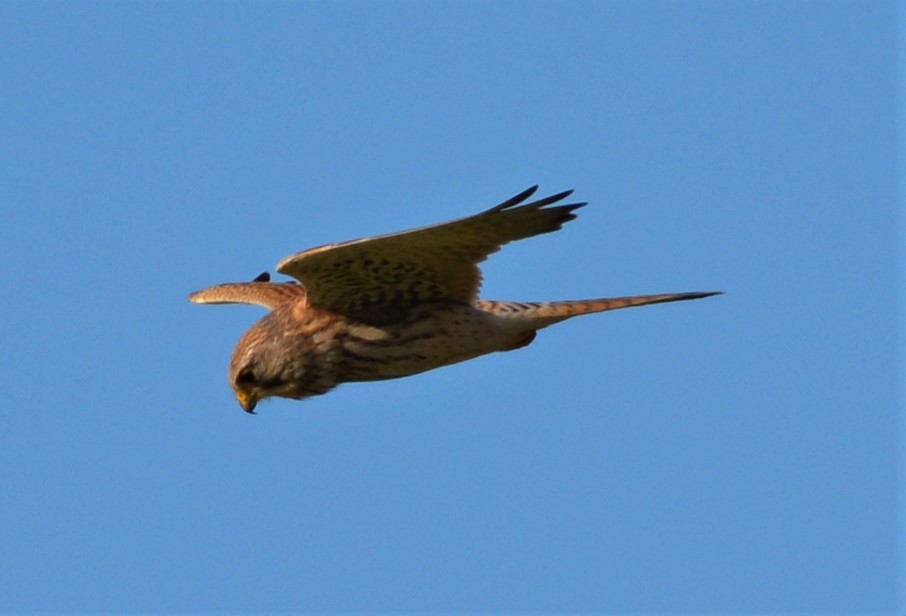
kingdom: Animalia
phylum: Chordata
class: Aves
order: Falconiformes
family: Falconidae
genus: Falco
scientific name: Falco tinnunculus
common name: Common kestrel
